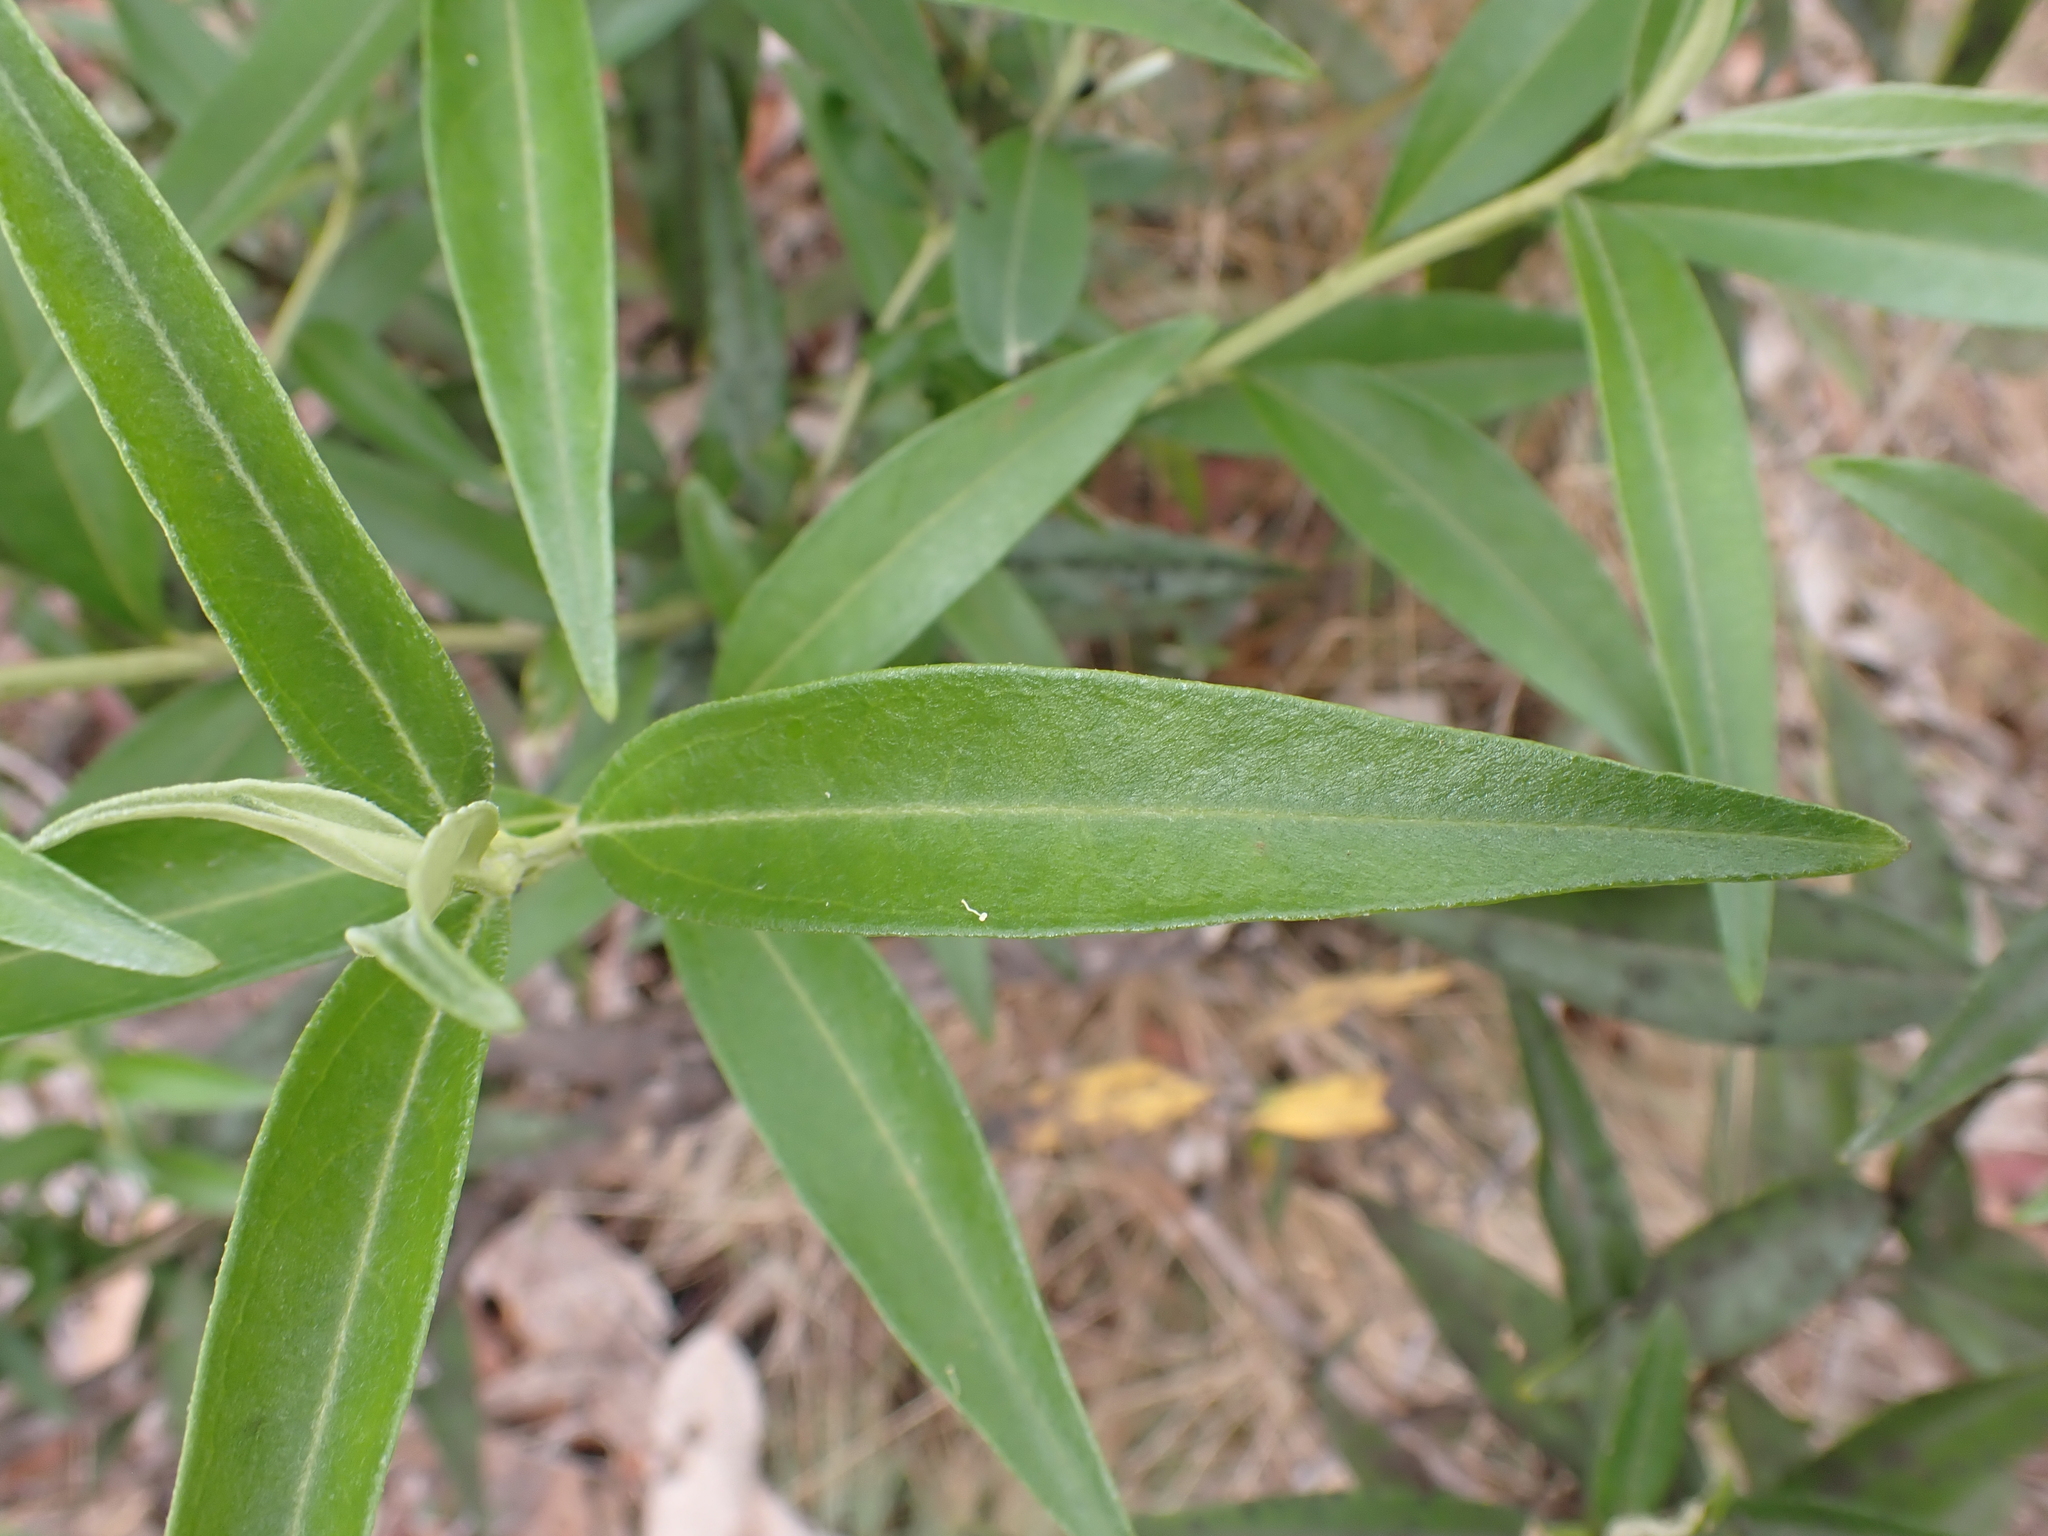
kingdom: Plantae
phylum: Tracheophyta
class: Magnoliopsida
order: Asterales
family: Asteraceae
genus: Ozothamnus
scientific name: Ozothamnus stirlingii
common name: Ovens everlasting
